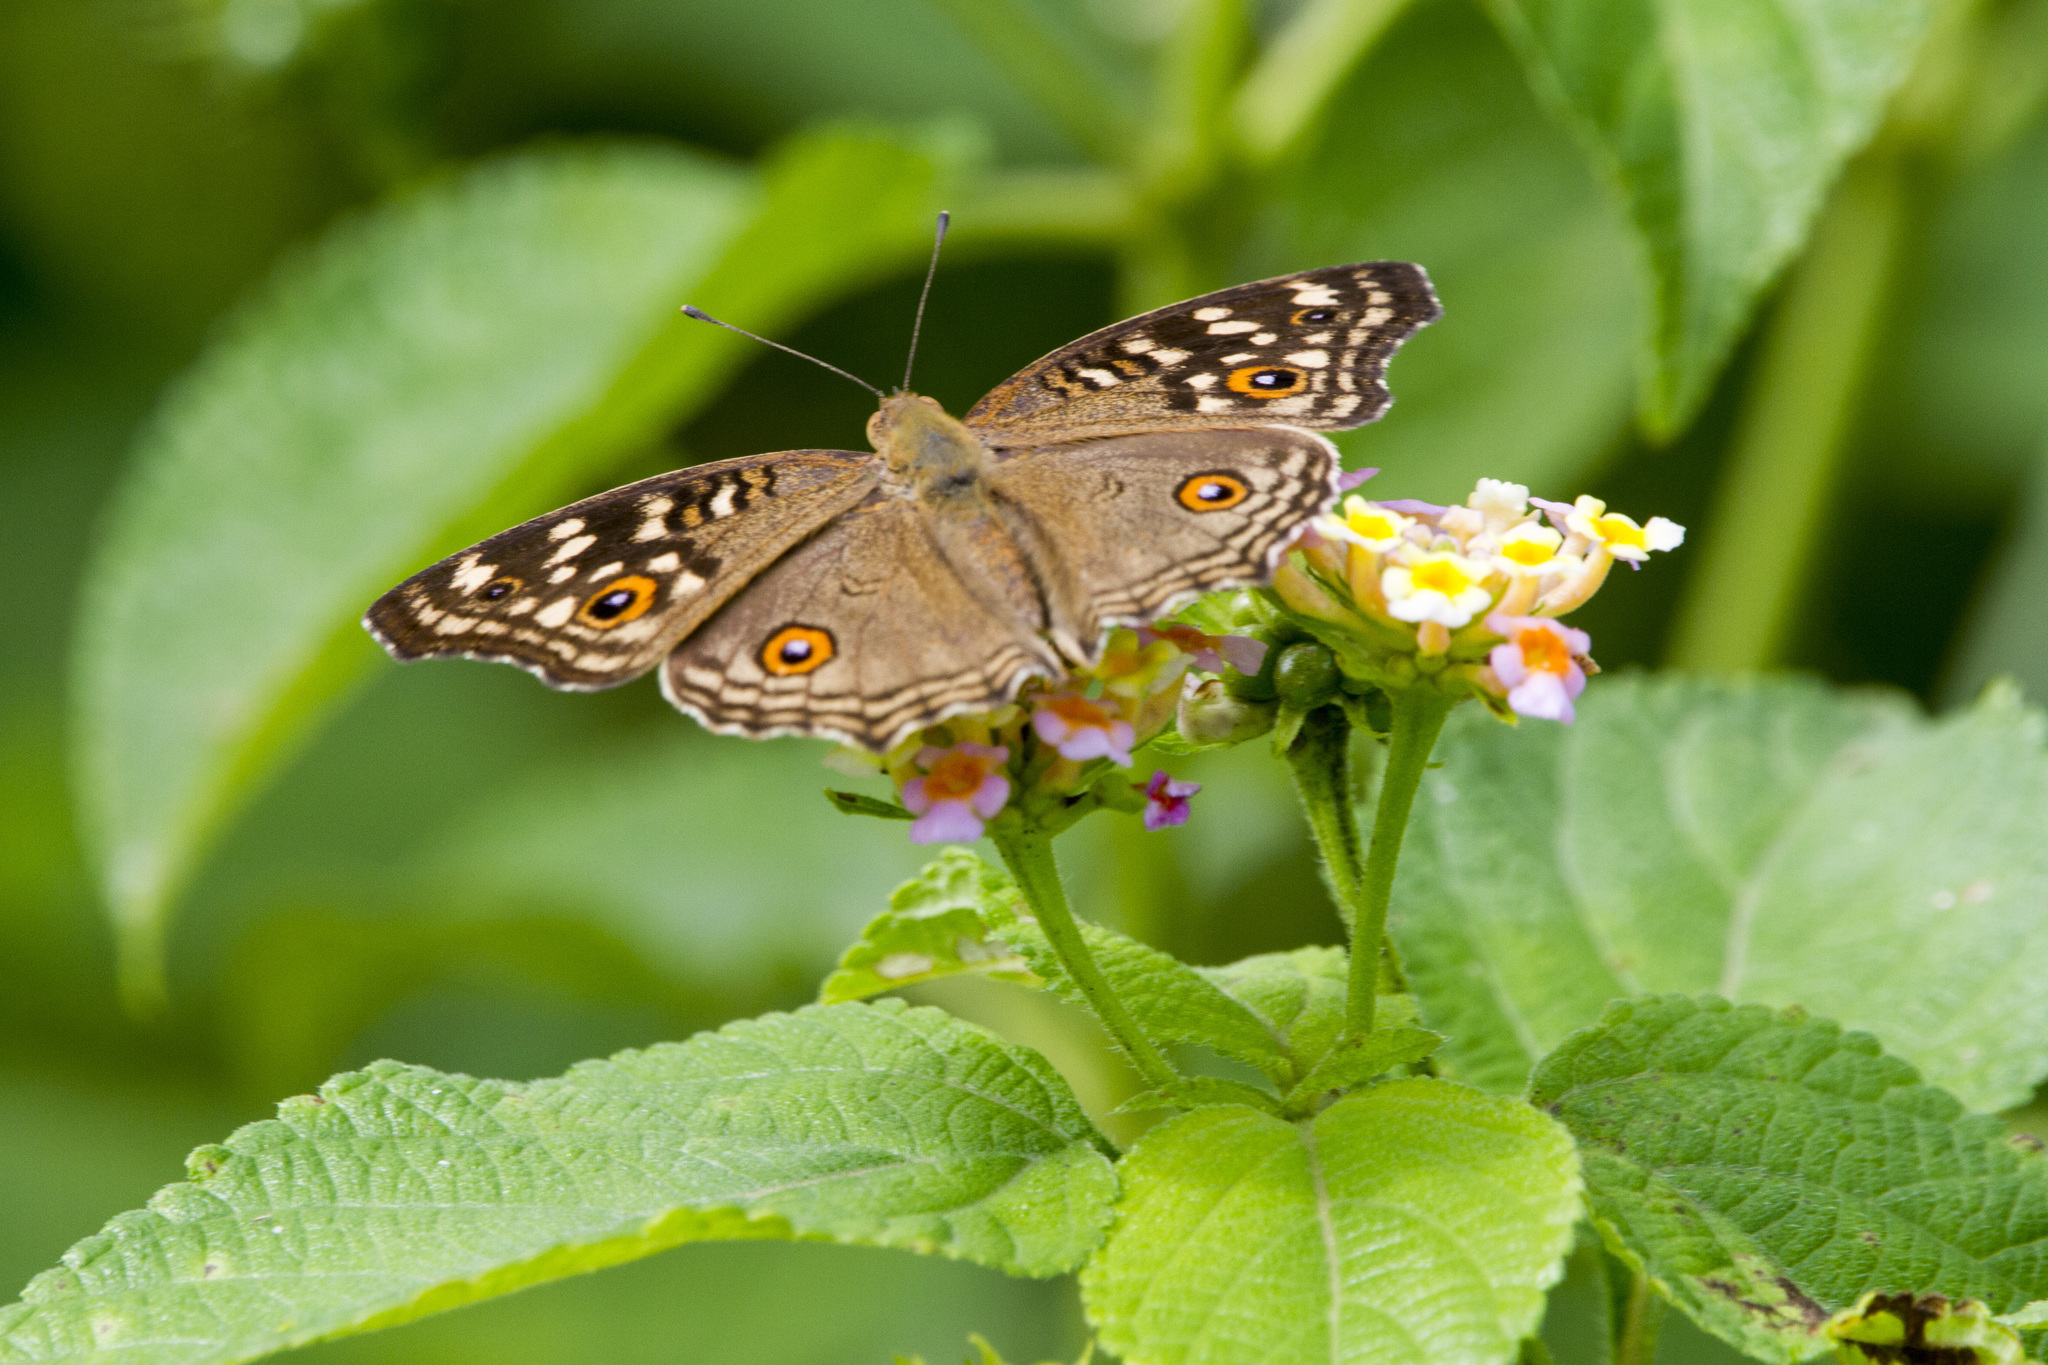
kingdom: Animalia
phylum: Arthropoda
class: Insecta
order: Lepidoptera
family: Nymphalidae
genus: Junonia
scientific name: Junonia lemonias
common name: Lemon pansy
